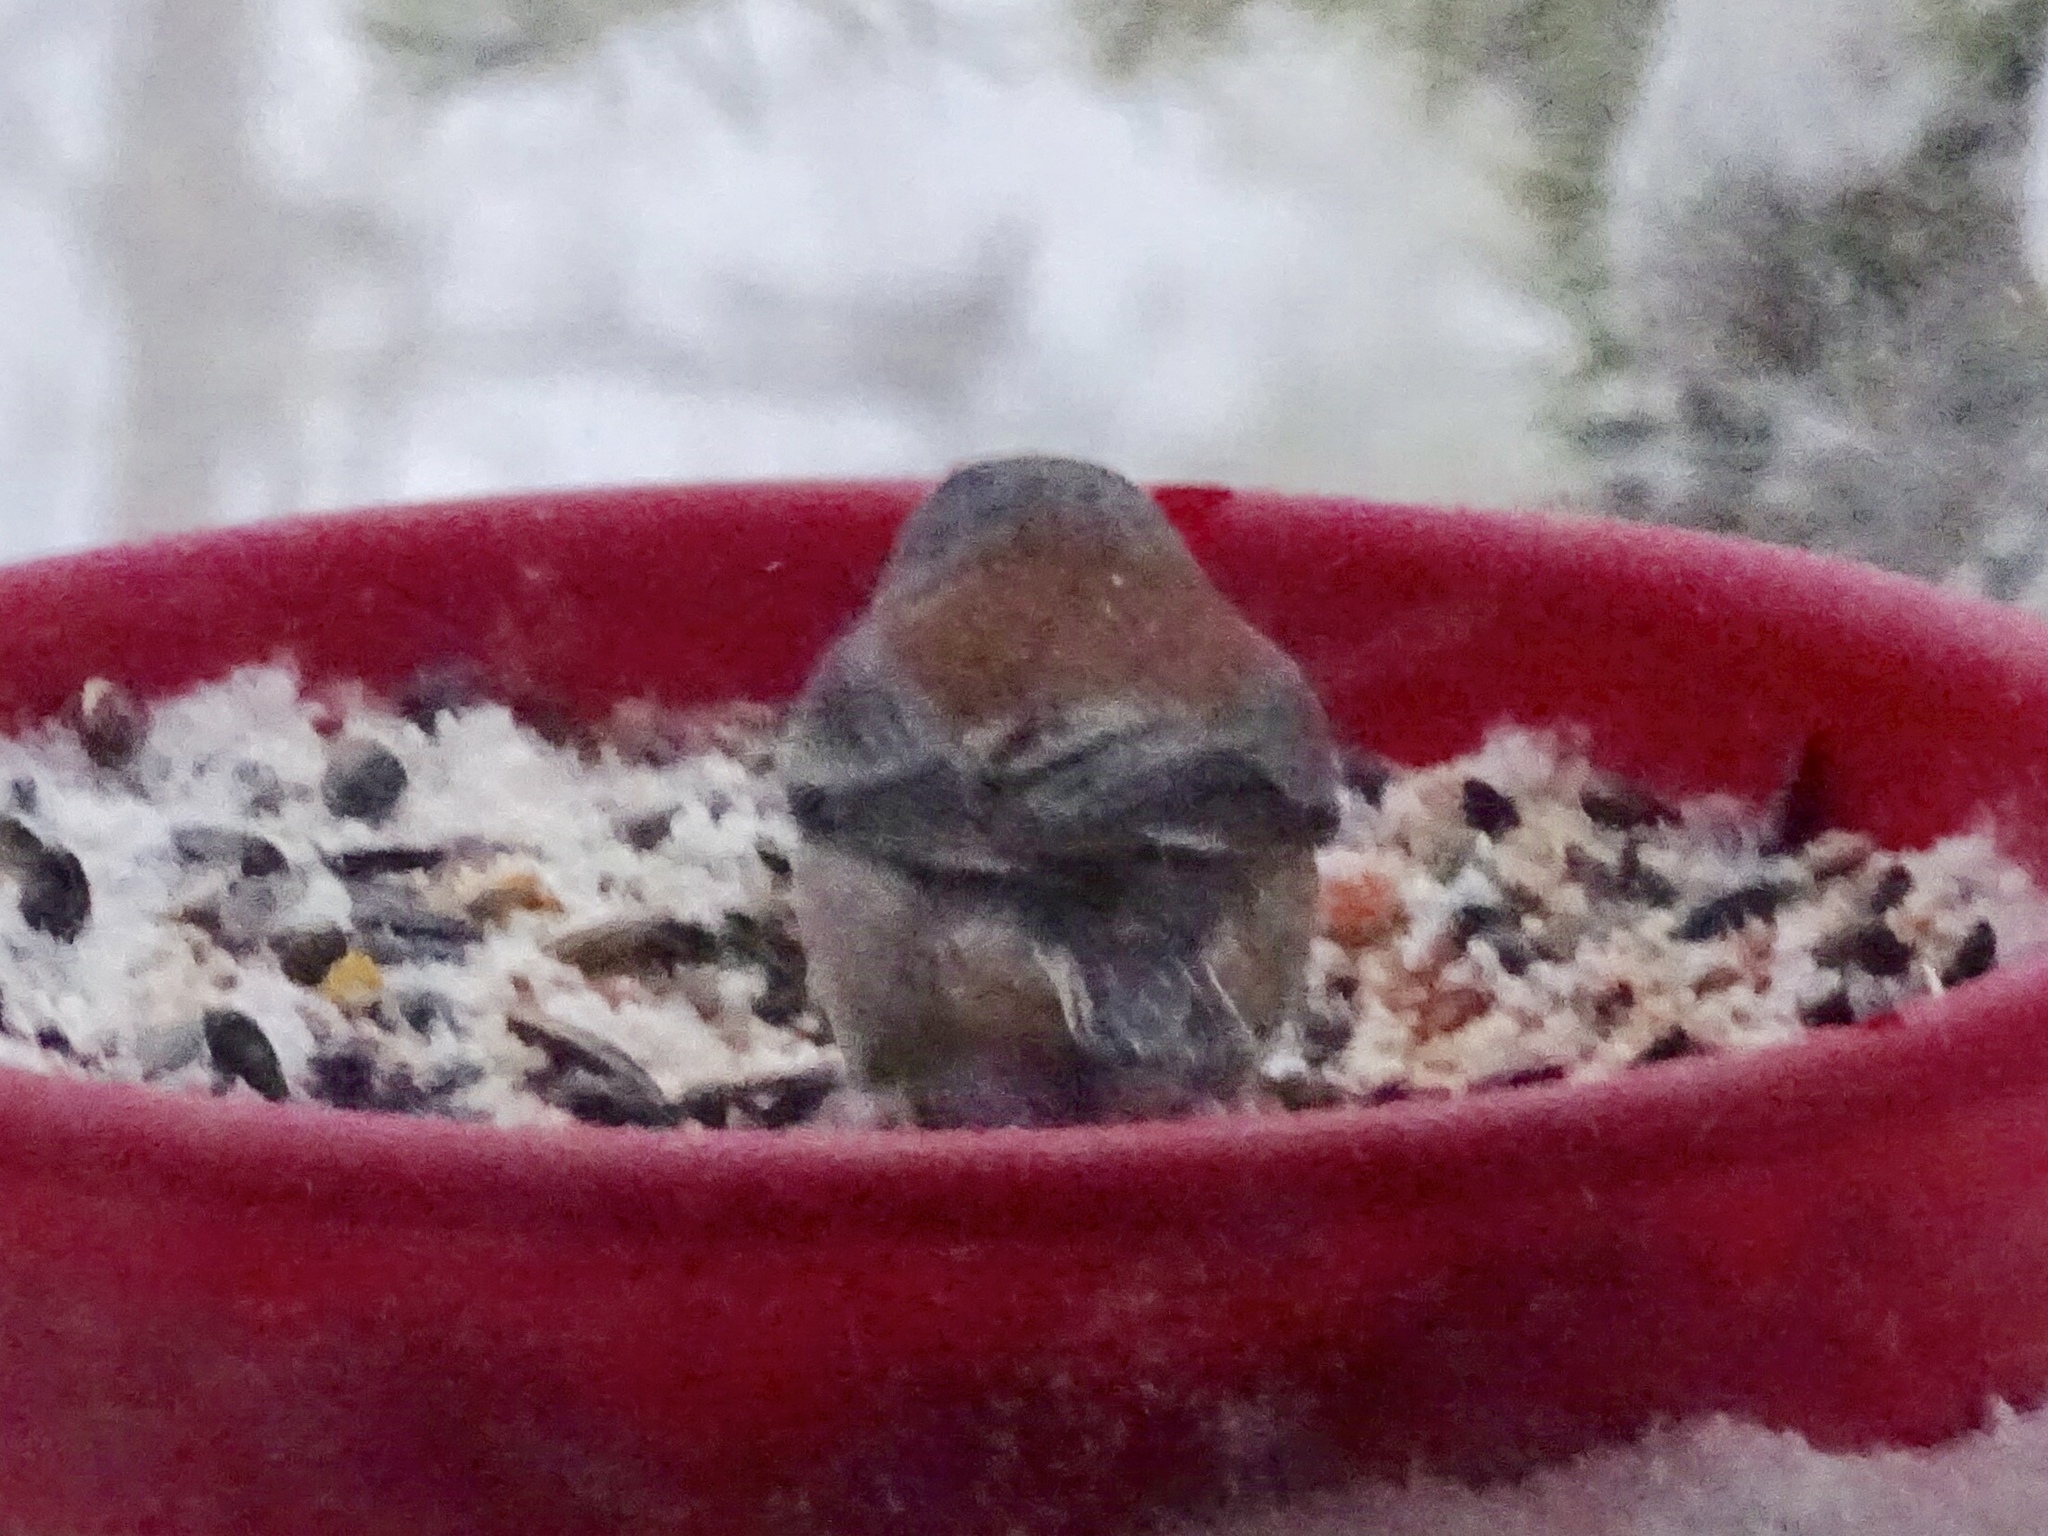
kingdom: Animalia
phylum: Chordata
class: Aves
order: Passeriformes
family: Passerellidae
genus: Junco
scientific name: Junco hyemalis
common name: Dark-eyed junco
